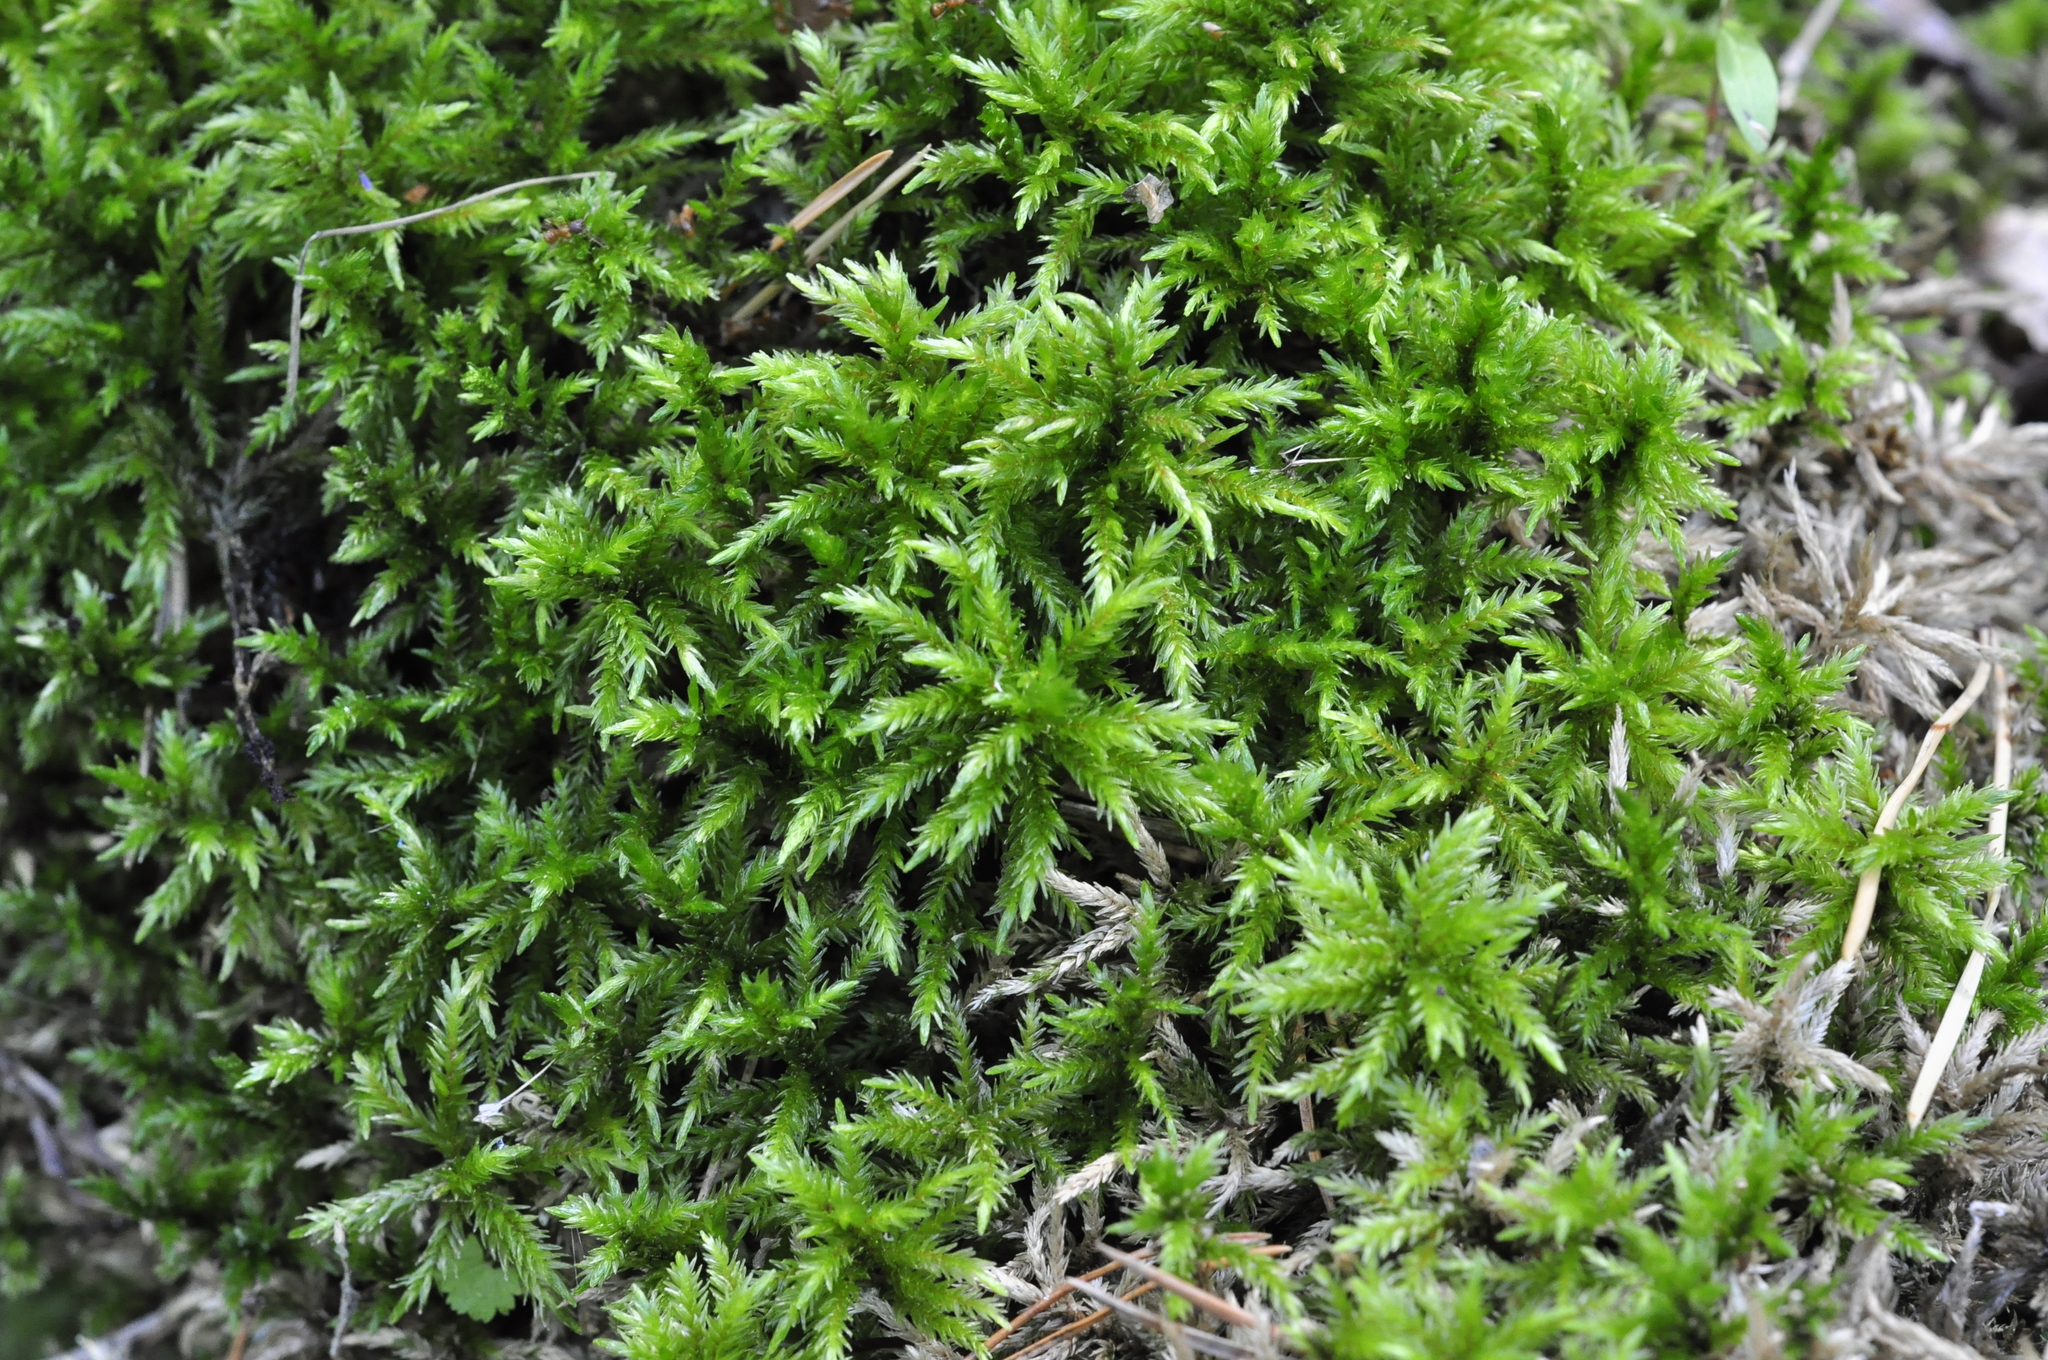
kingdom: Plantae
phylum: Bryophyta
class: Bryopsida
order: Hypnales
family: Climaciaceae
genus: Climacium
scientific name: Climacium dendroides
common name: Northern tree moss
